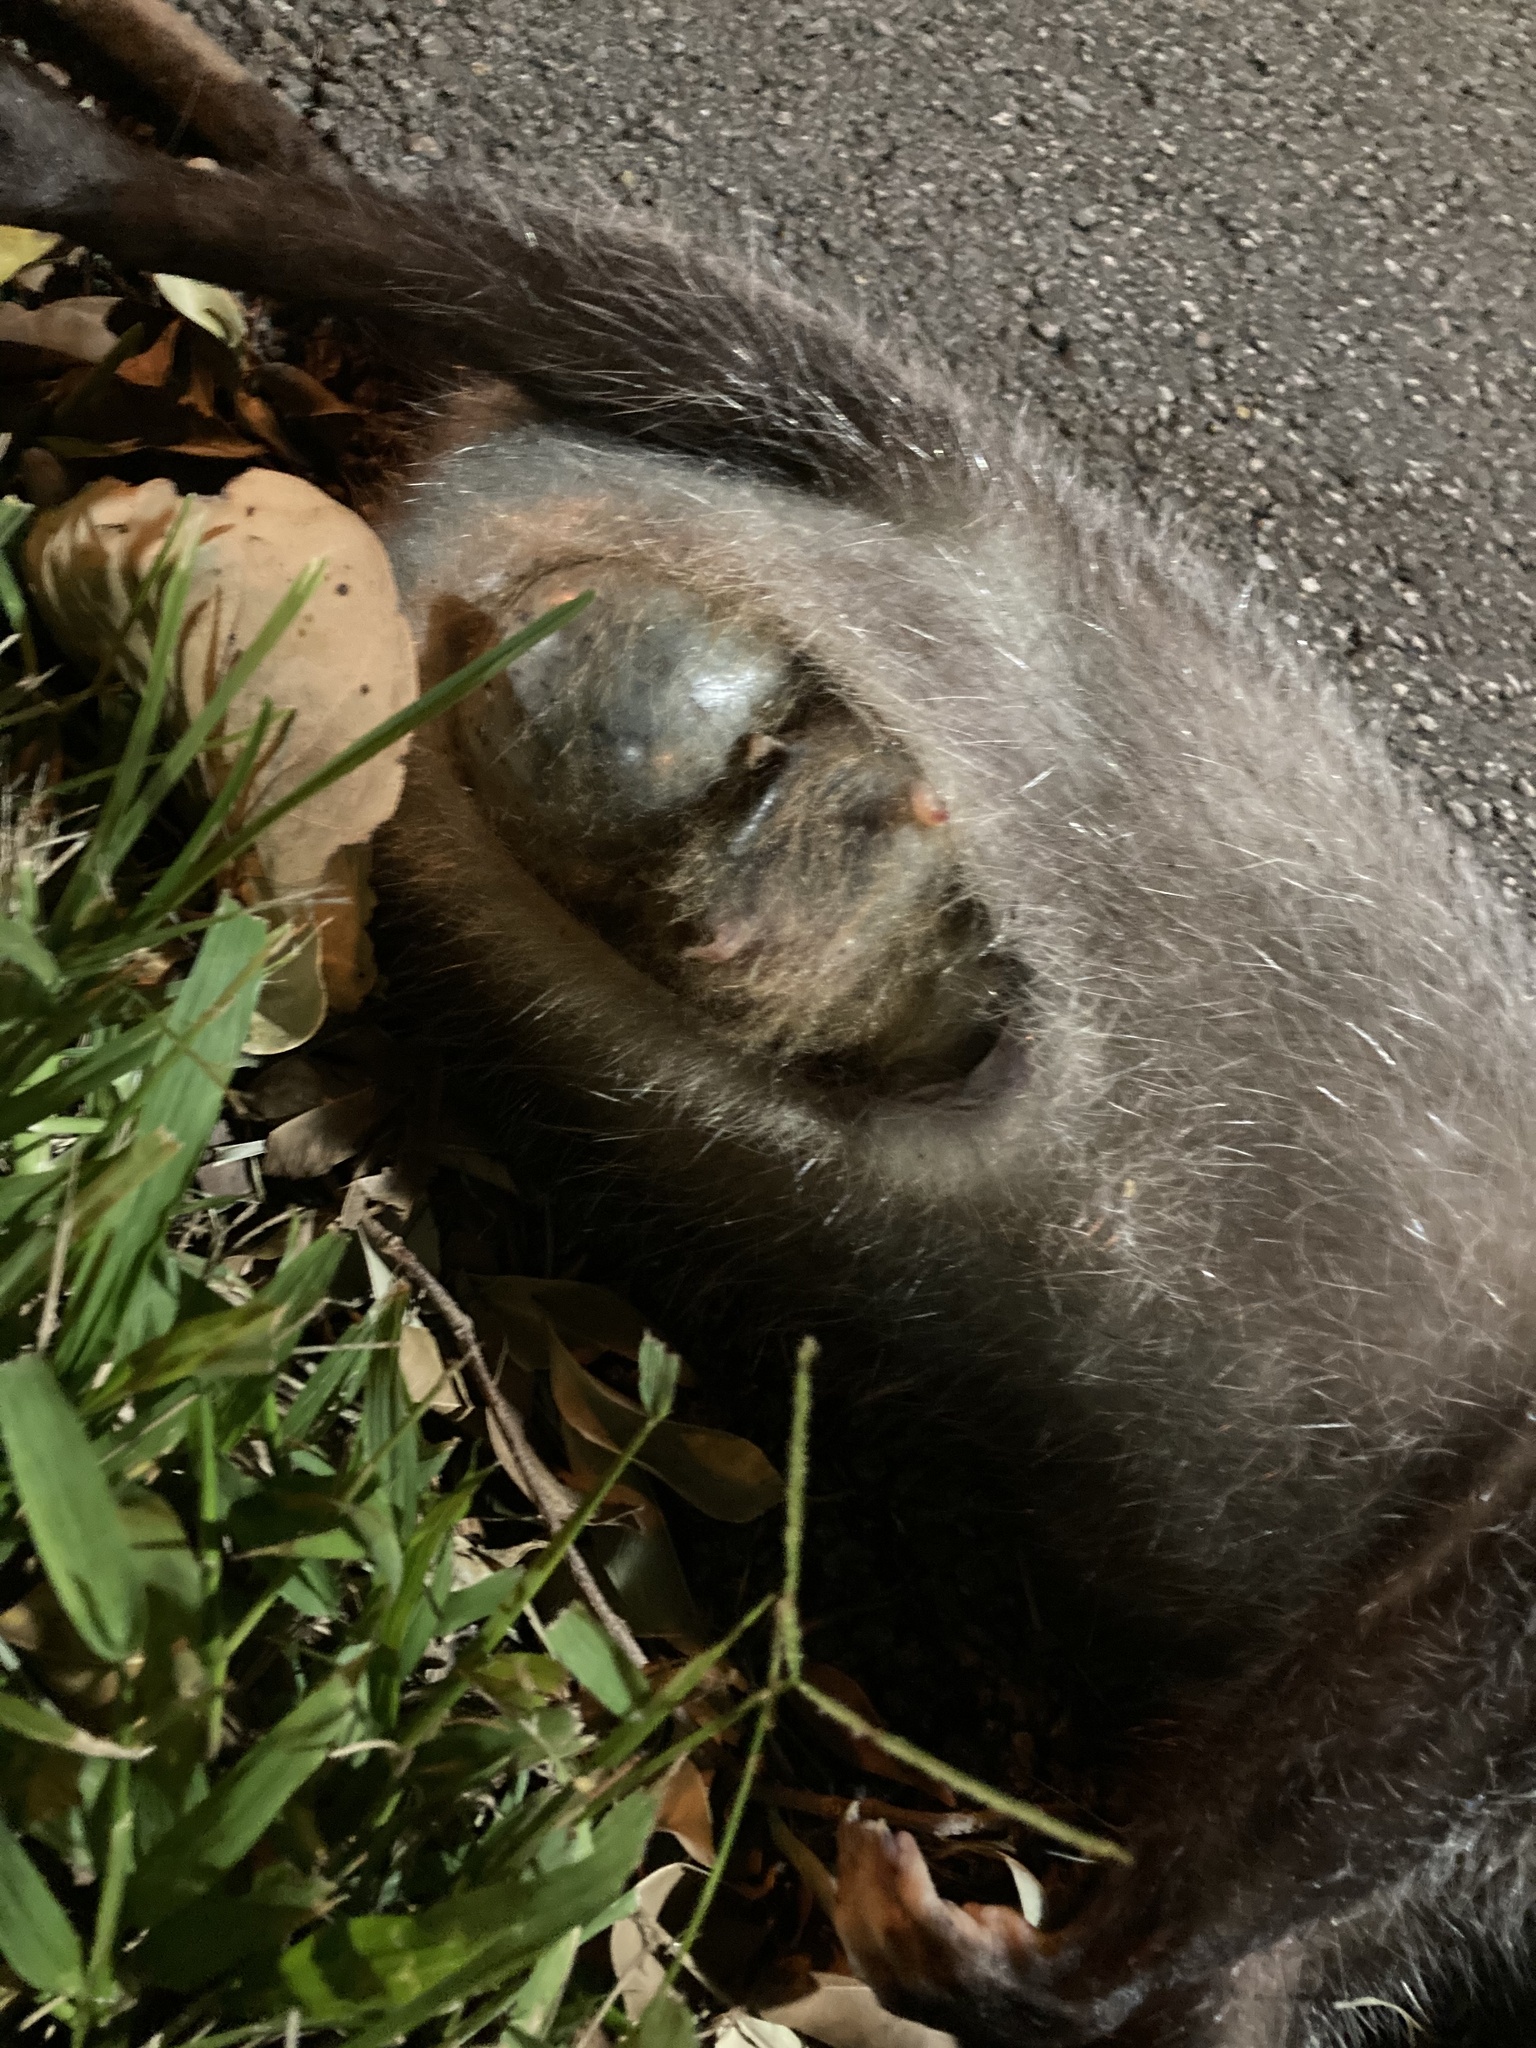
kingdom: Animalia
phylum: Chordata
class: Mammalia
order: Didelphimorphia
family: Didelphidae
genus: Didelphis
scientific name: Didelphis virginiana
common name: Virginia opossum
